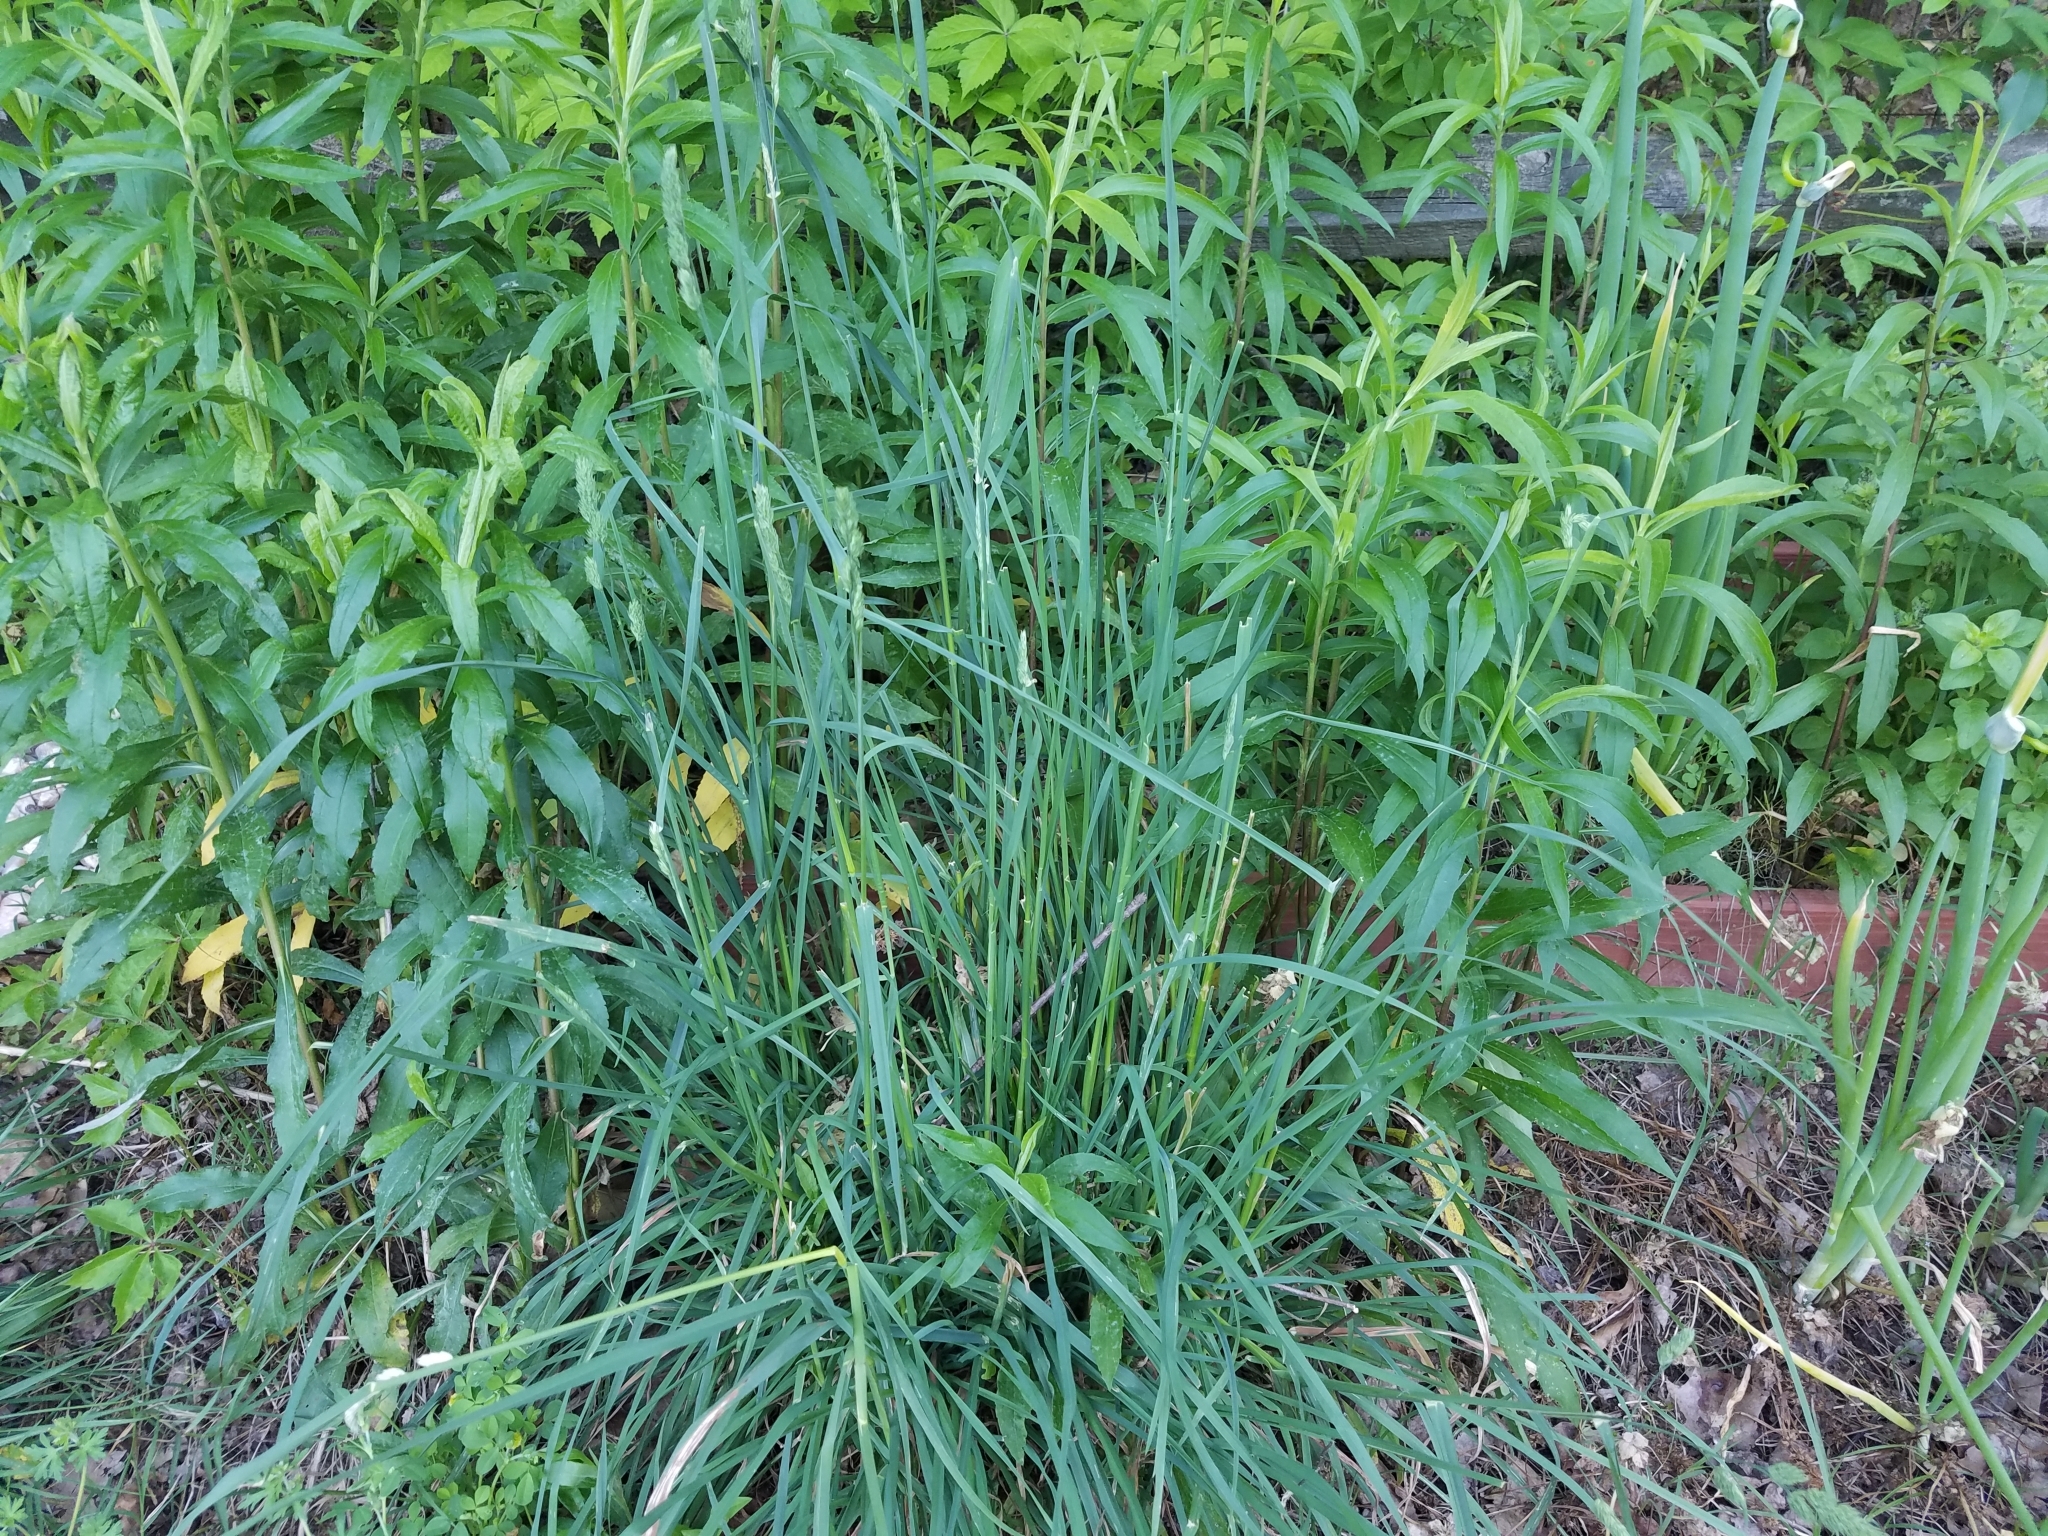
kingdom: Plantae
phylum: Tracheophyta
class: Liliopsida
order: Poales
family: Poaceae
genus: Dactylis
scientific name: Dactylis glomerata
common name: Orchardgrass
